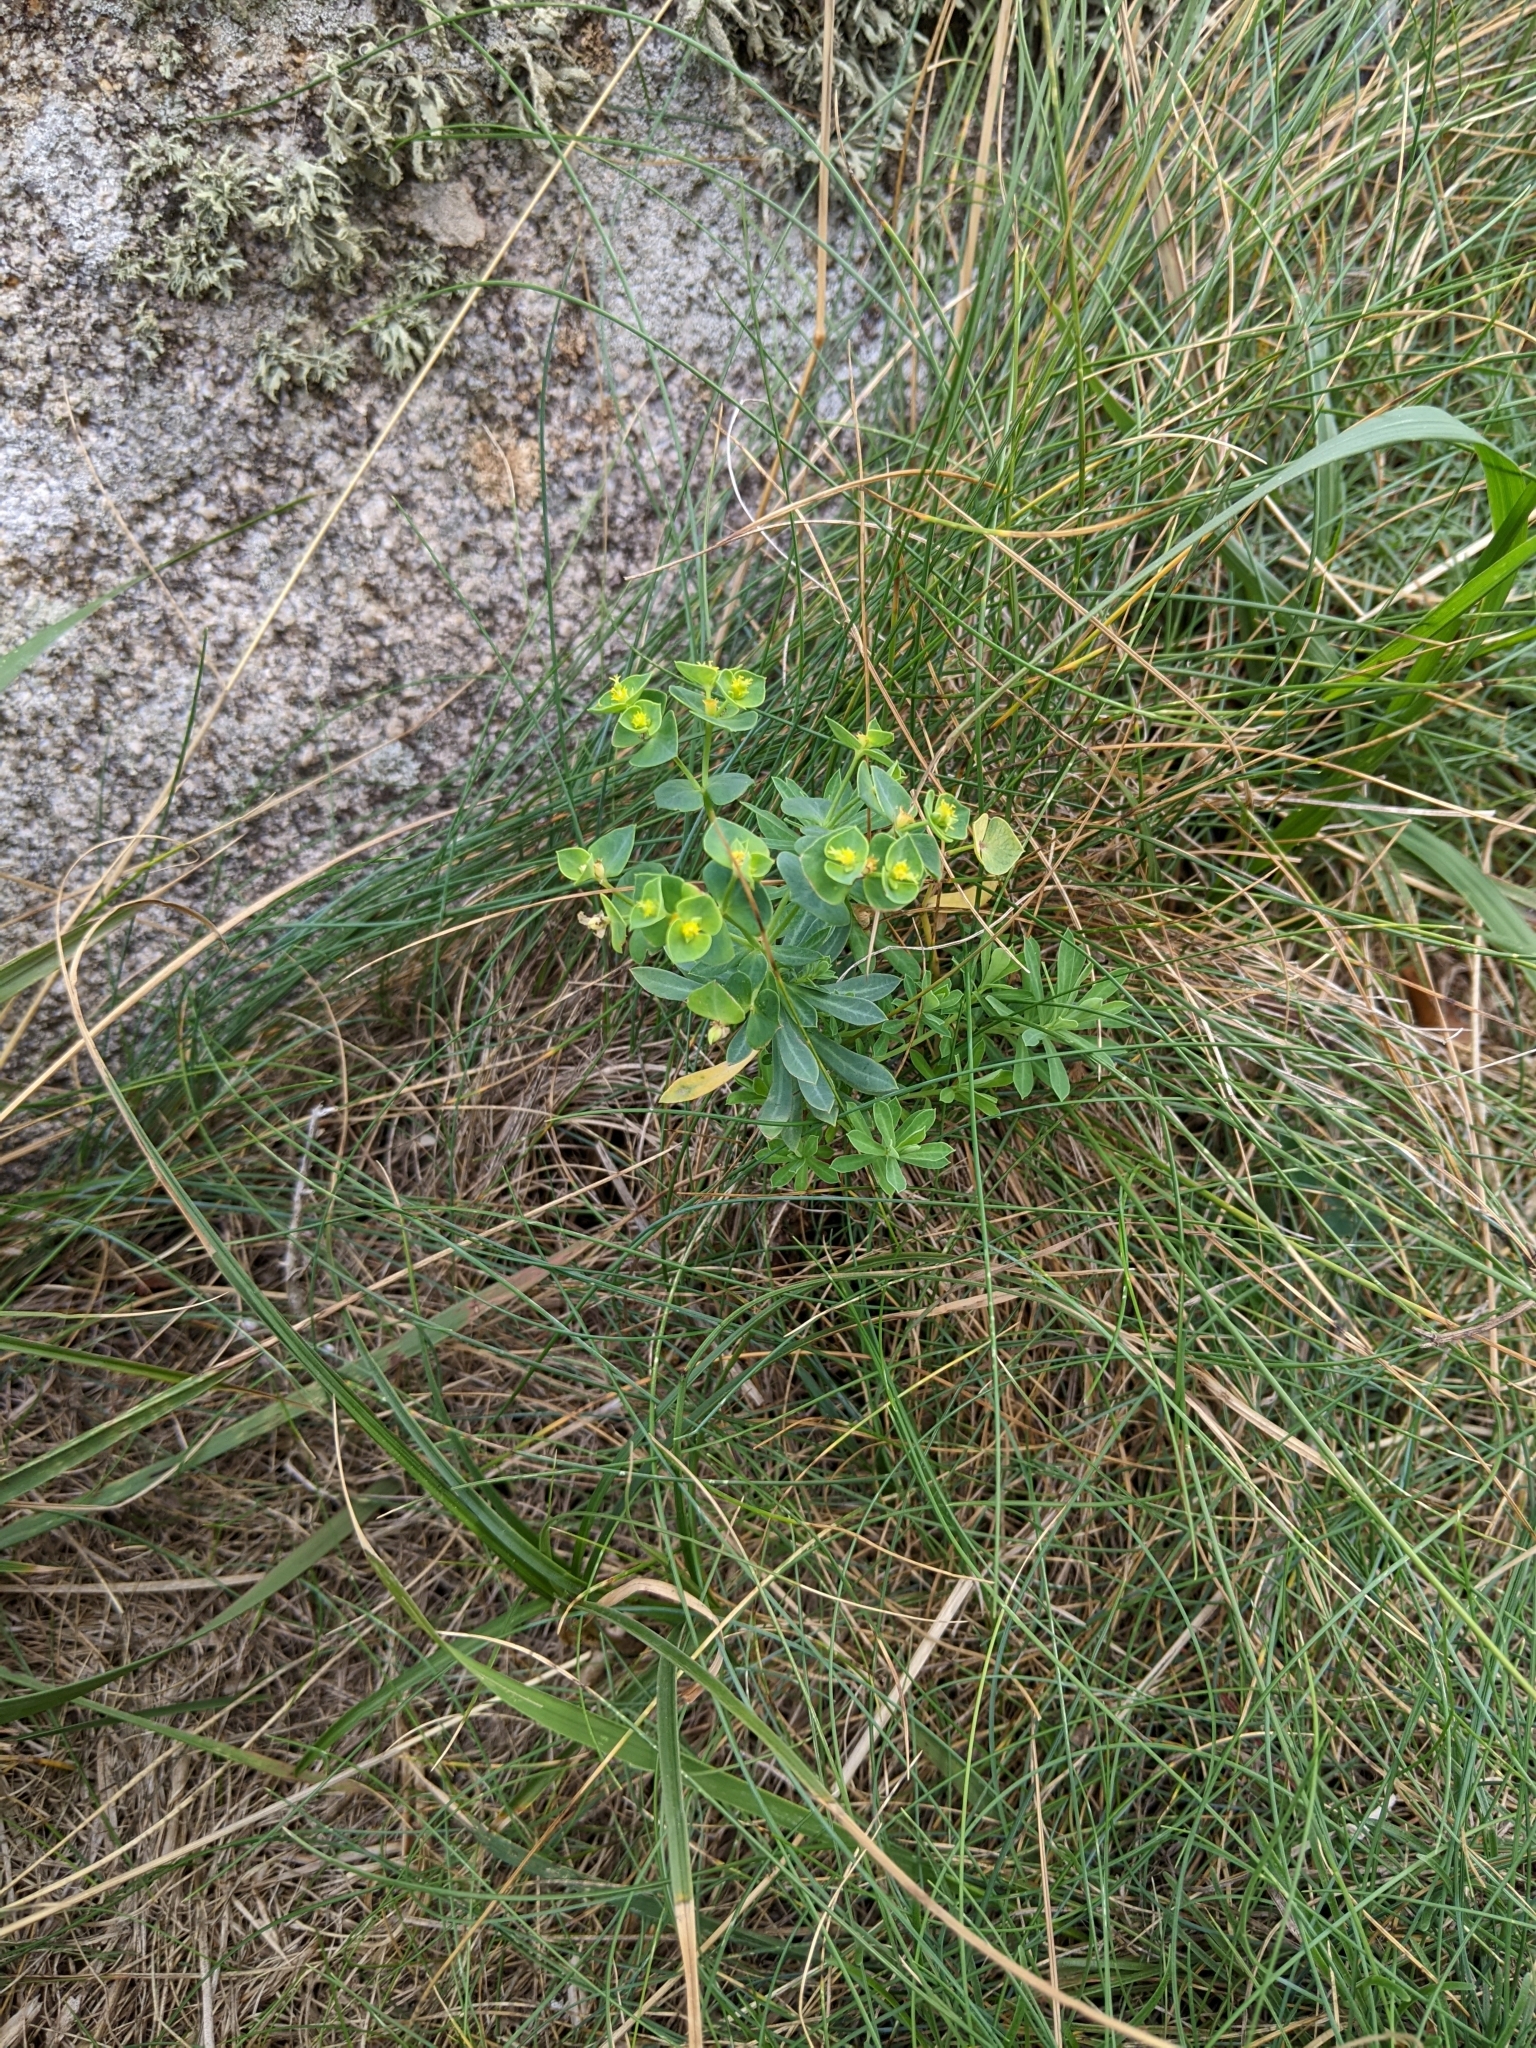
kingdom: Plantae
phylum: Tracheophyta
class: Magnoliopsida
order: Malpighiales
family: Euphorbiaceae
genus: Euphorbia
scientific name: Euphorbia portlandica
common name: Portland spurge
